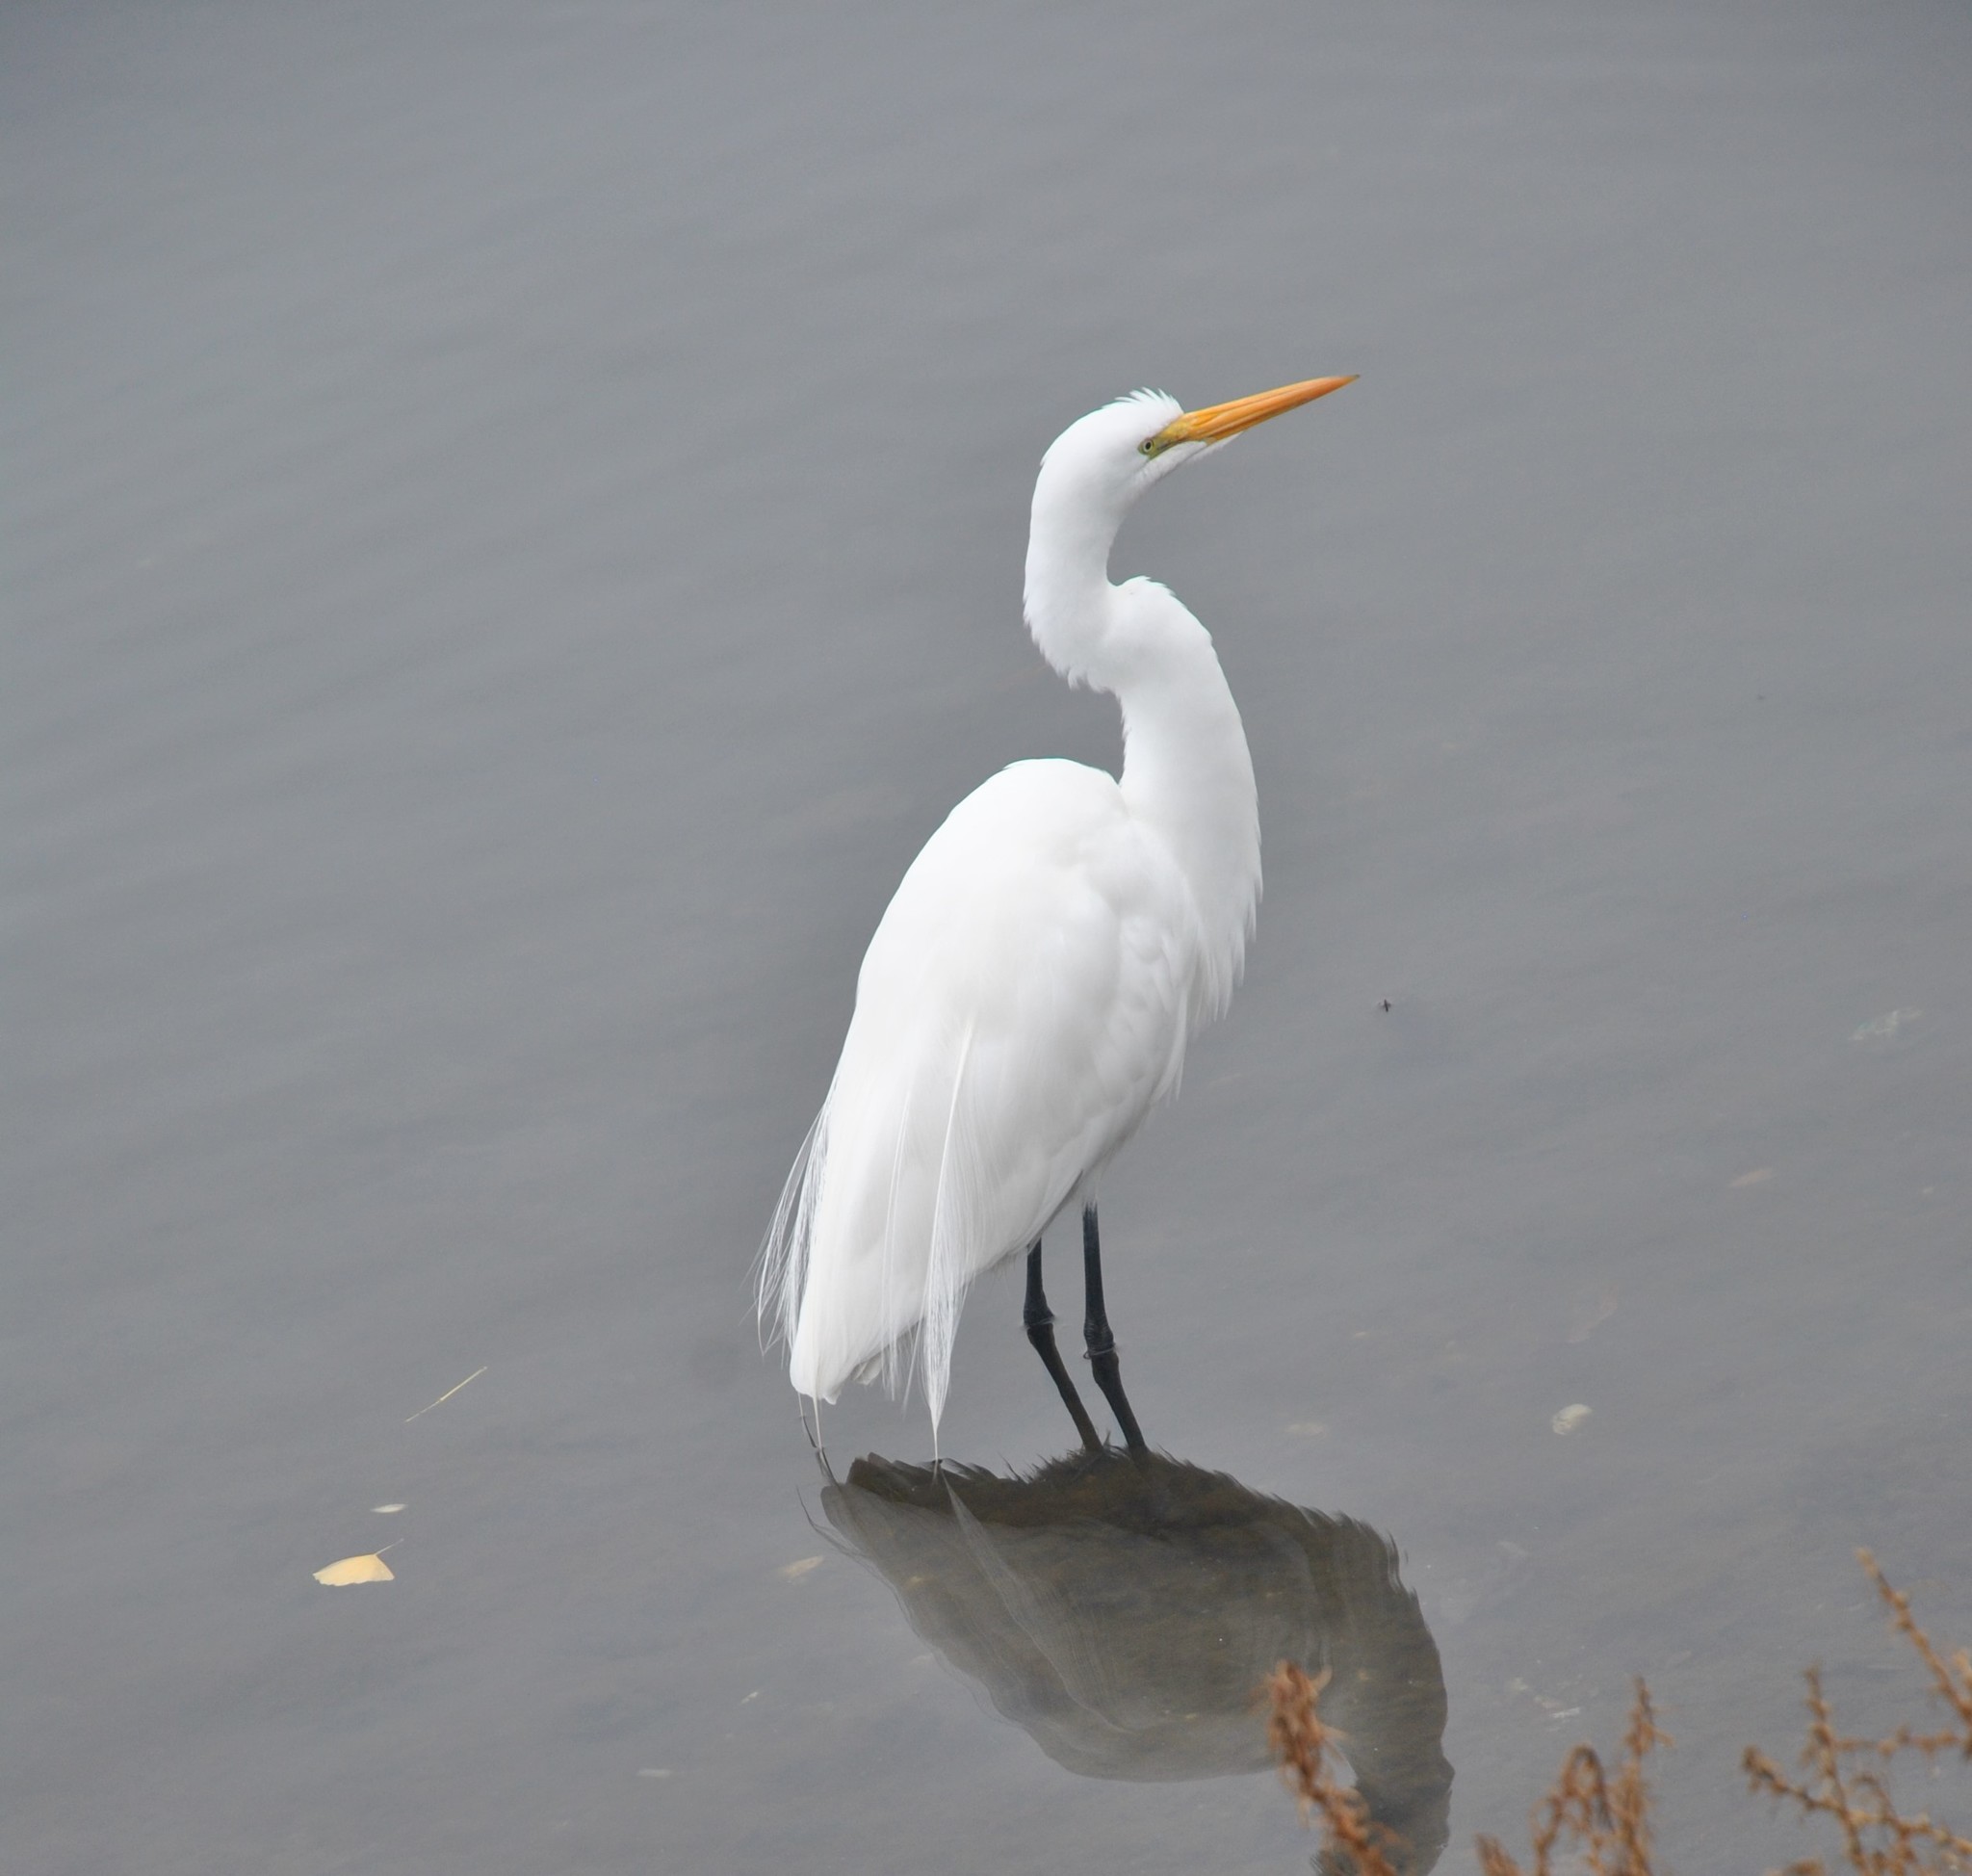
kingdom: Animalia
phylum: Chordata
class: Aves
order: Pelecaniformes
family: Ardeidae
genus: Ardea
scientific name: Ardea alba
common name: Great egret
